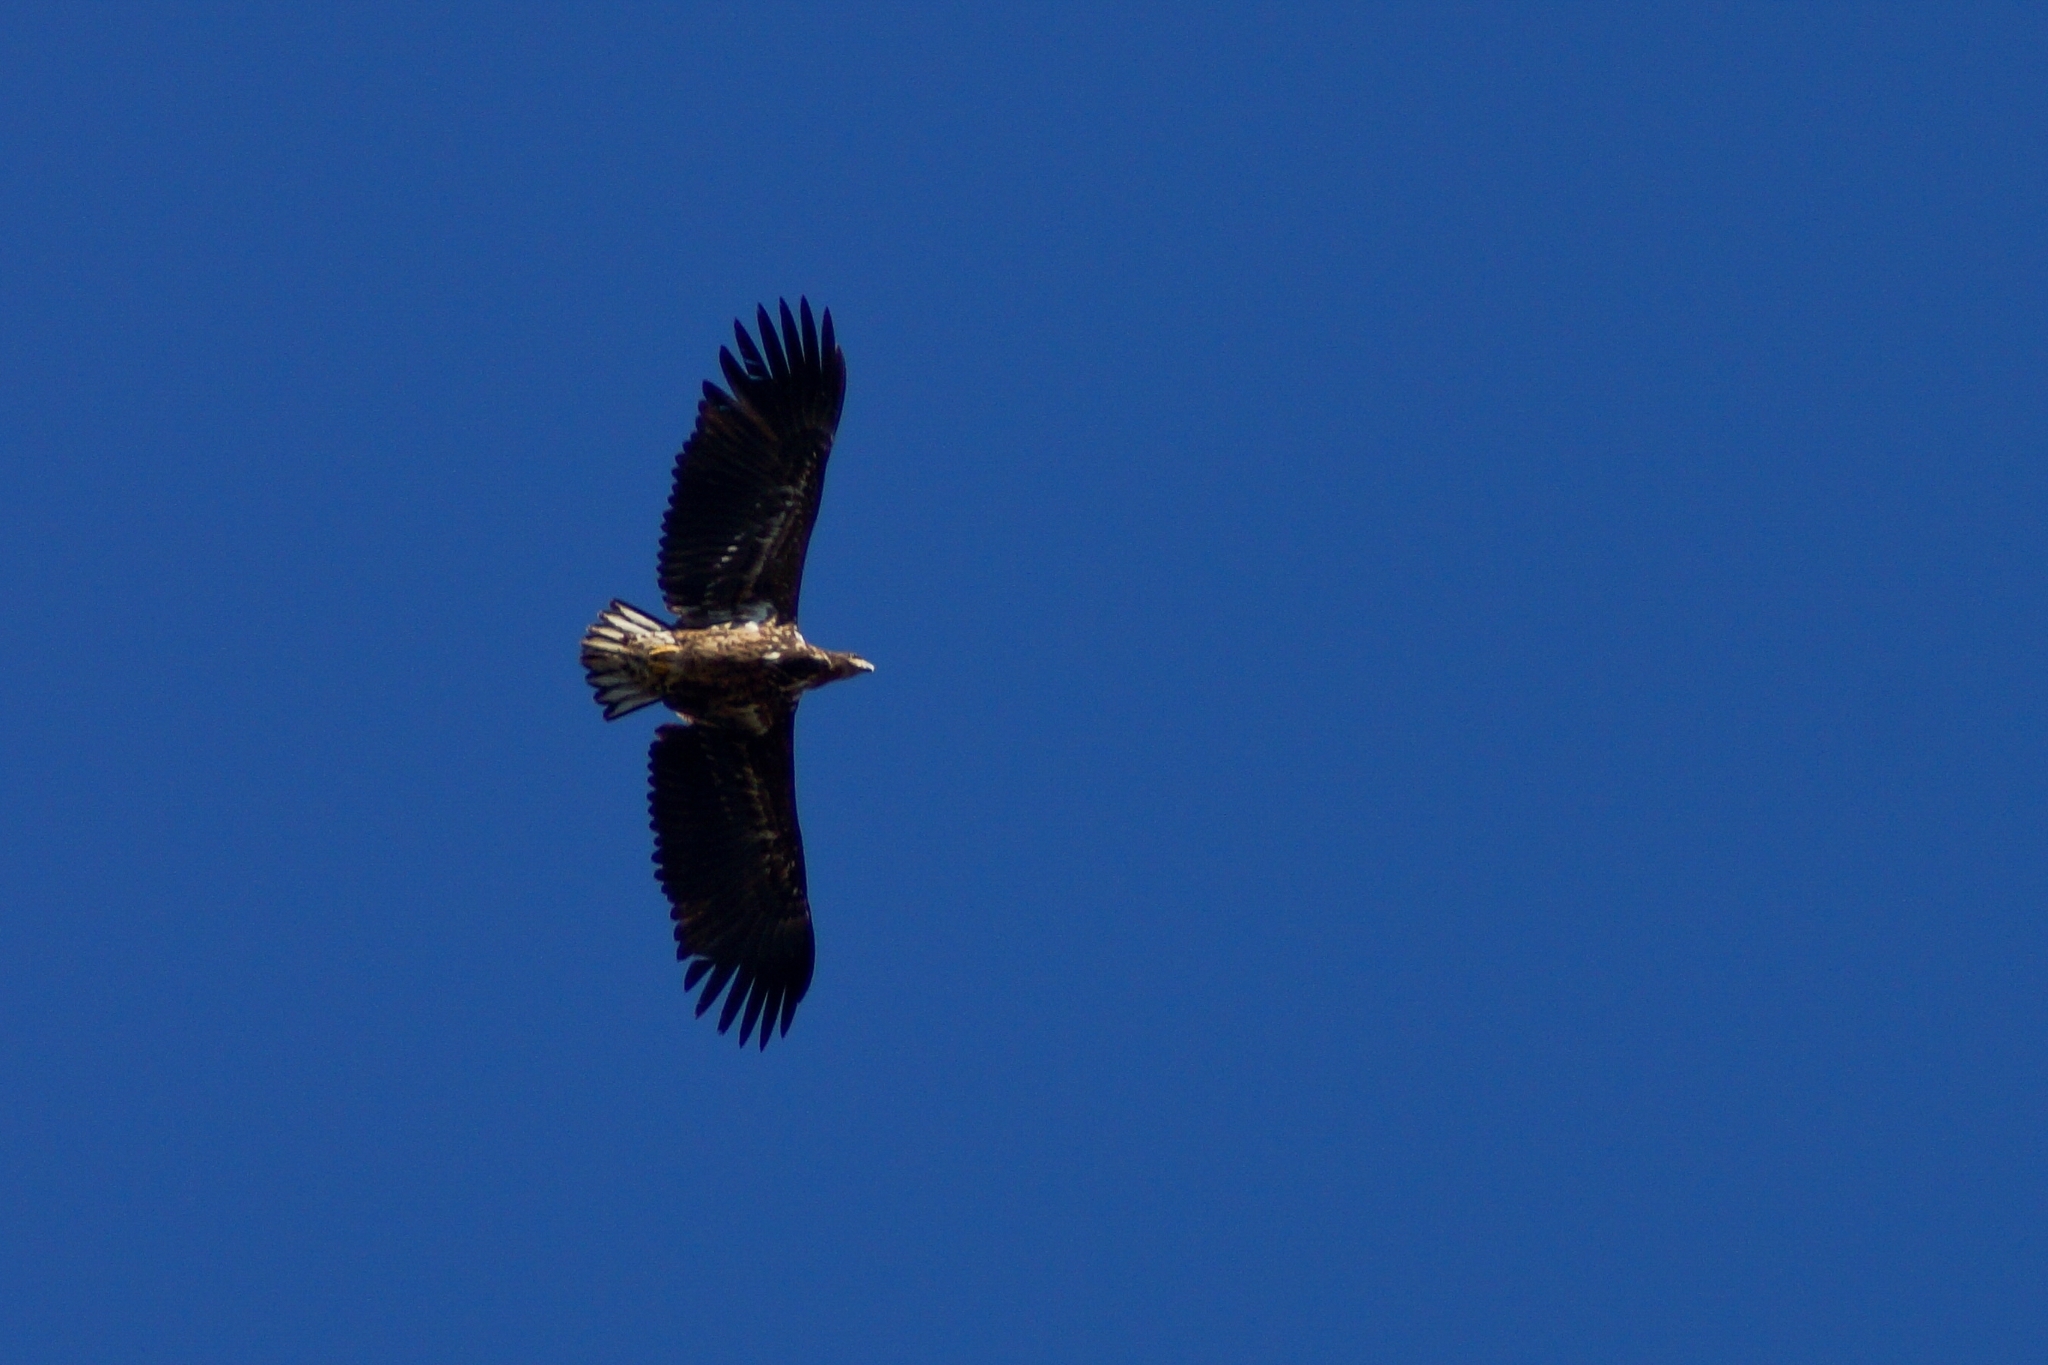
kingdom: Animalia
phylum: Chordata
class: Aves
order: Accipitriformes
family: Accipitridae
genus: Haliaeetus
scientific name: Haliaeetus albicilla
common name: White-tailed eagle
